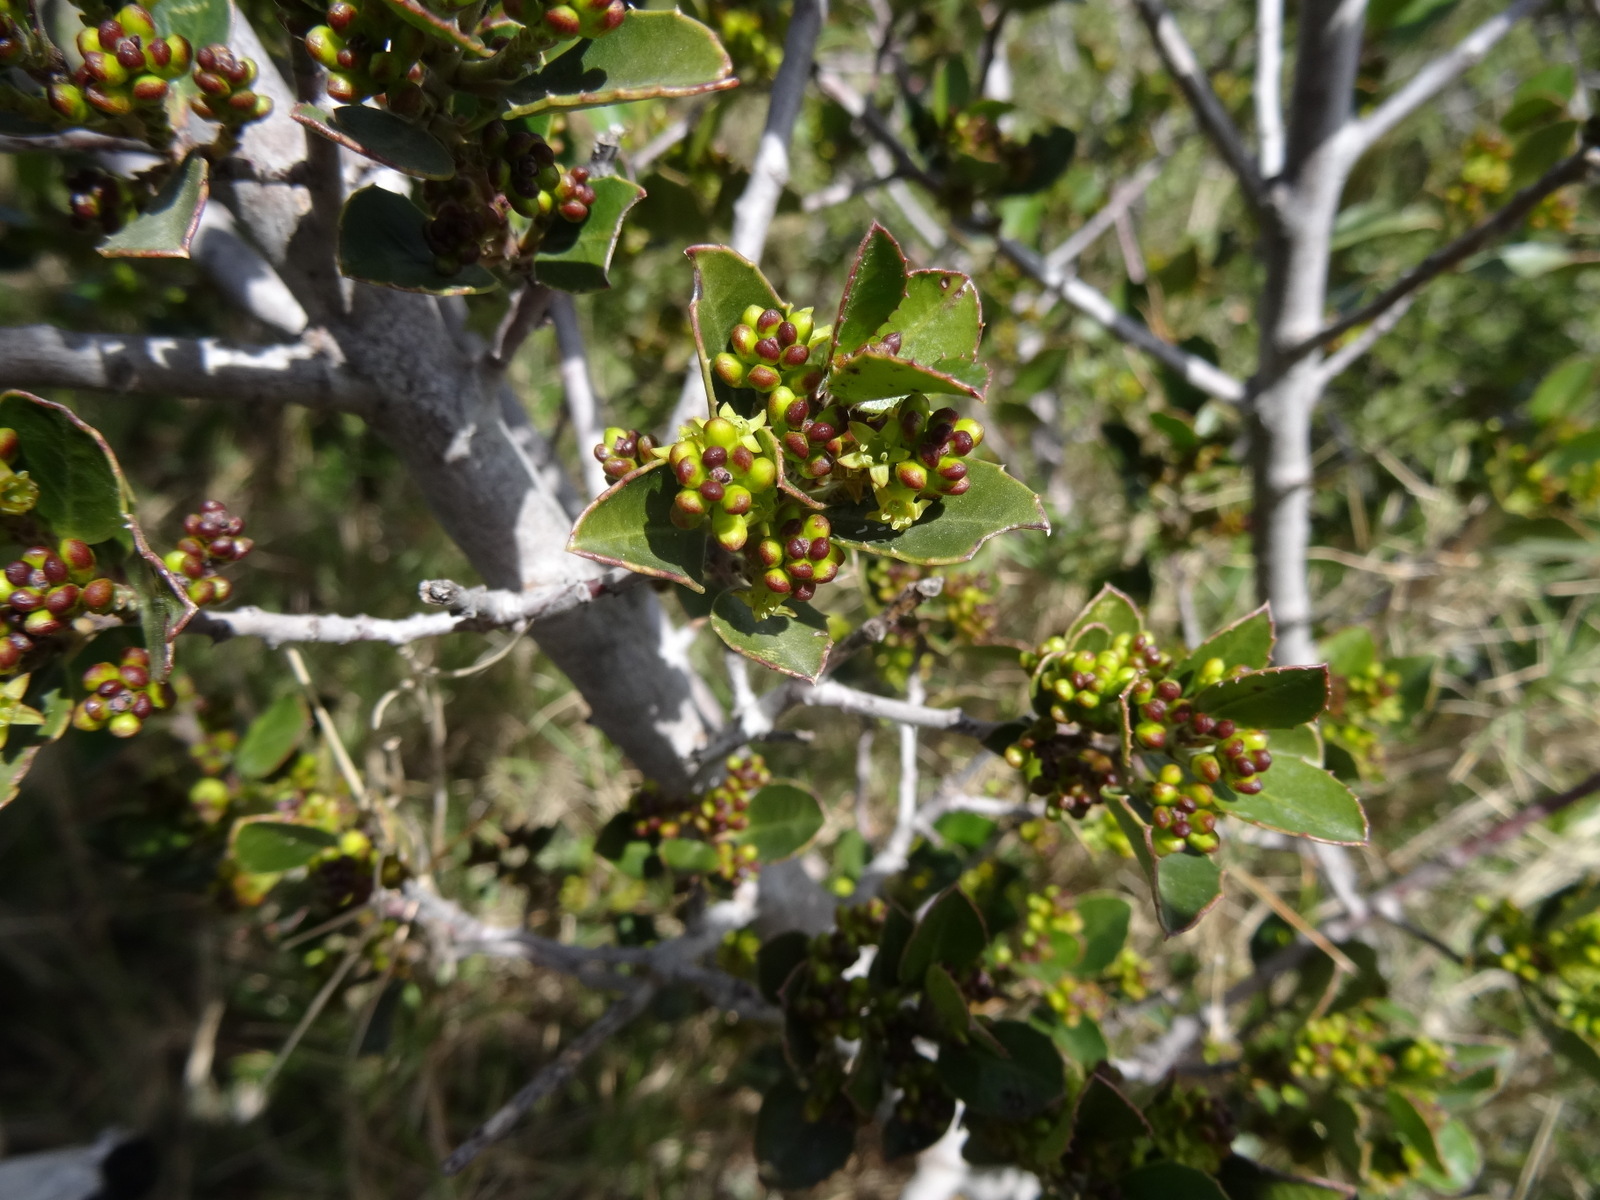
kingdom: Plantae
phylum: Tracheophyta
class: Magnoliopsida
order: Rosales
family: Rhamnaceae
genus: Rhamnus
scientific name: Rhamnus alaternus
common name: Mediterranean buckthorn
